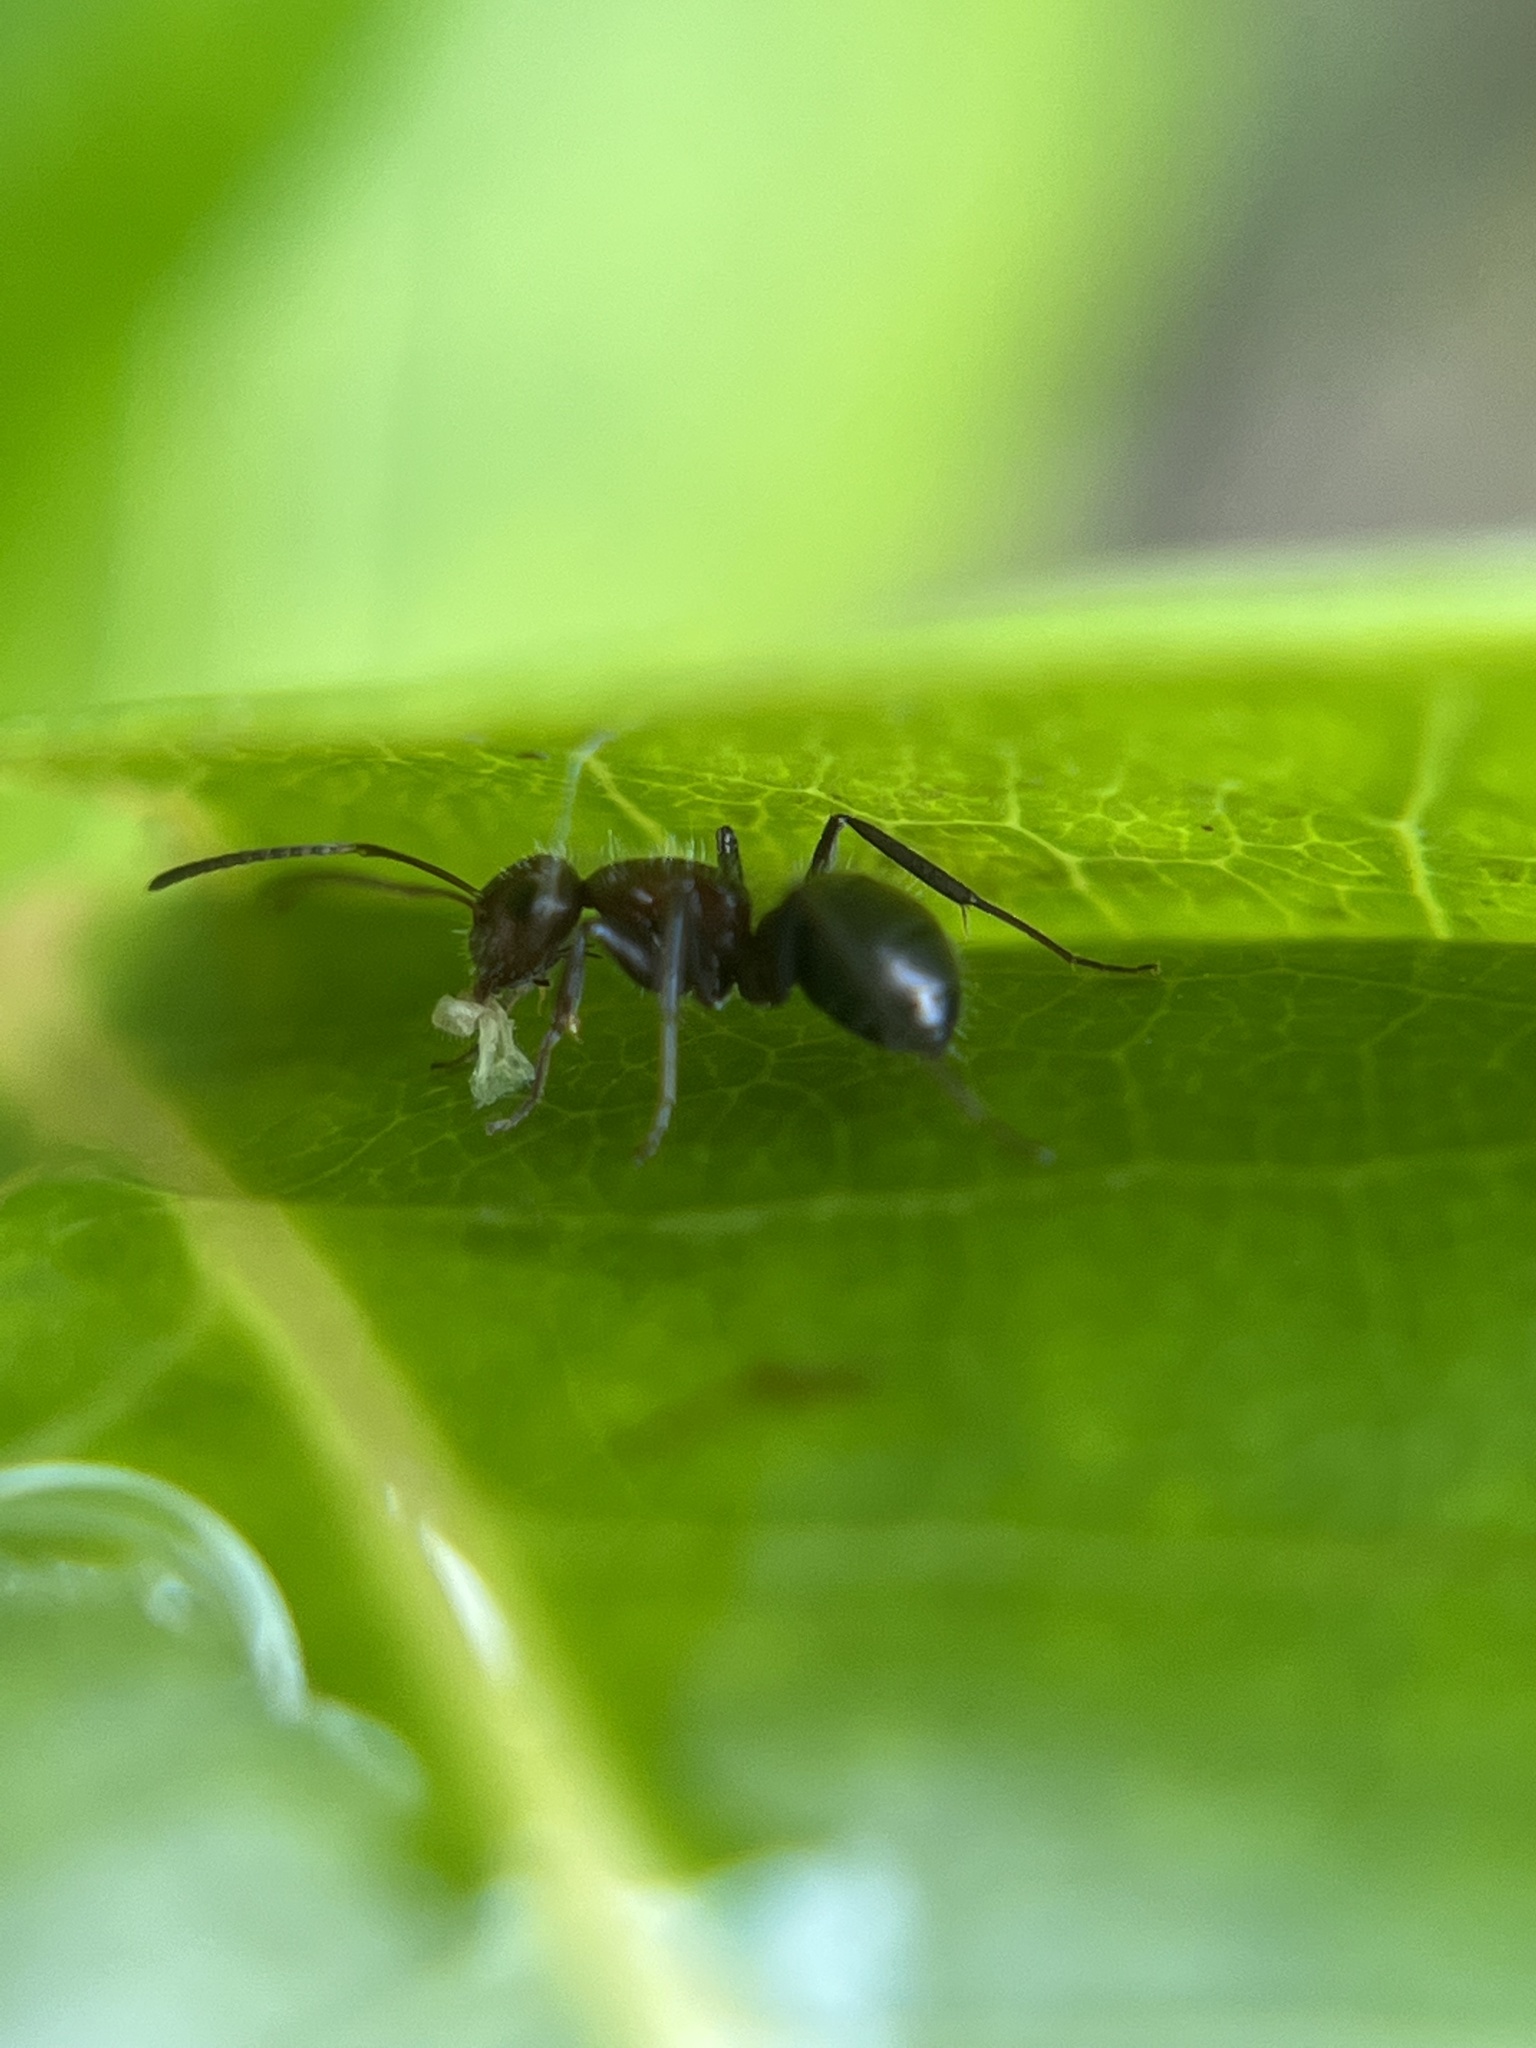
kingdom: Animalia
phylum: Arthropoda
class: Insecta
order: Hymenoptera
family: Formicidae
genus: Camponotus
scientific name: Camponotus planatus
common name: Compact carpenter ant
